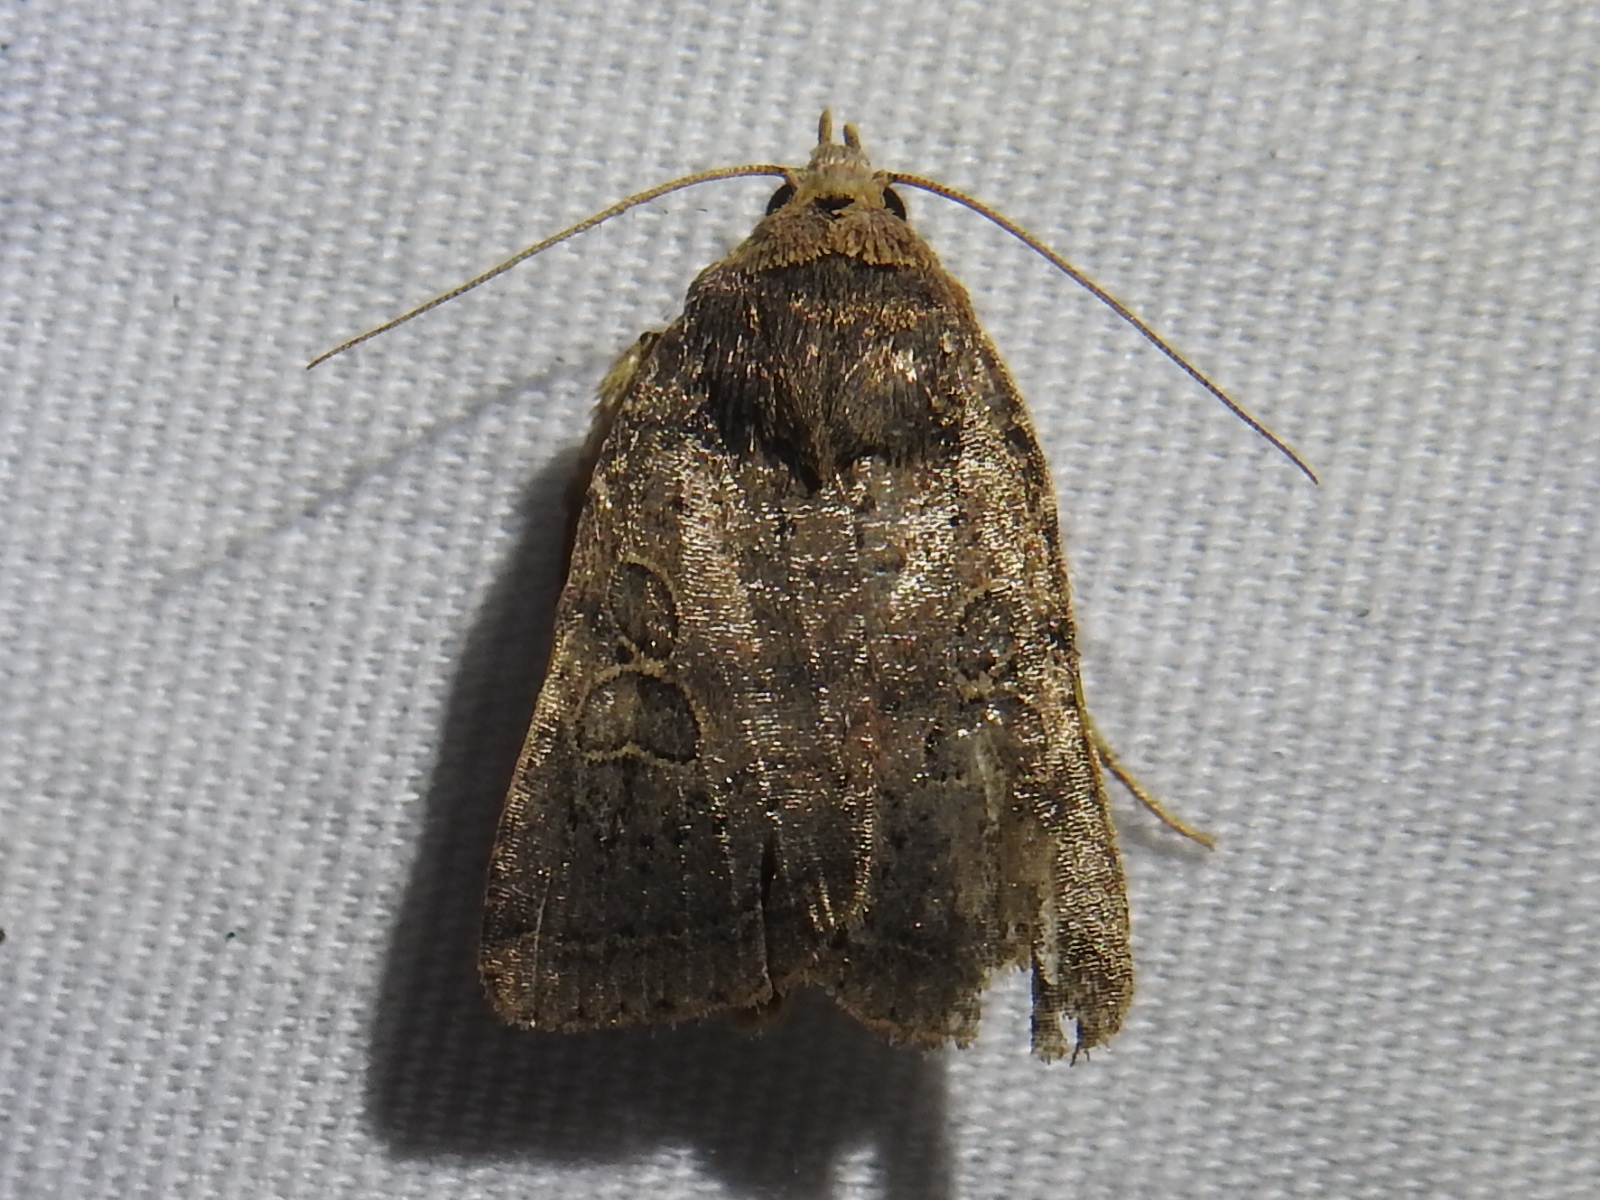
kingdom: Animalia
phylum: Arthropoda
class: Insecta
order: Lepidoptera
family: Noctuidae
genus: Orthodes
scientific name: Orthodes furtiva
